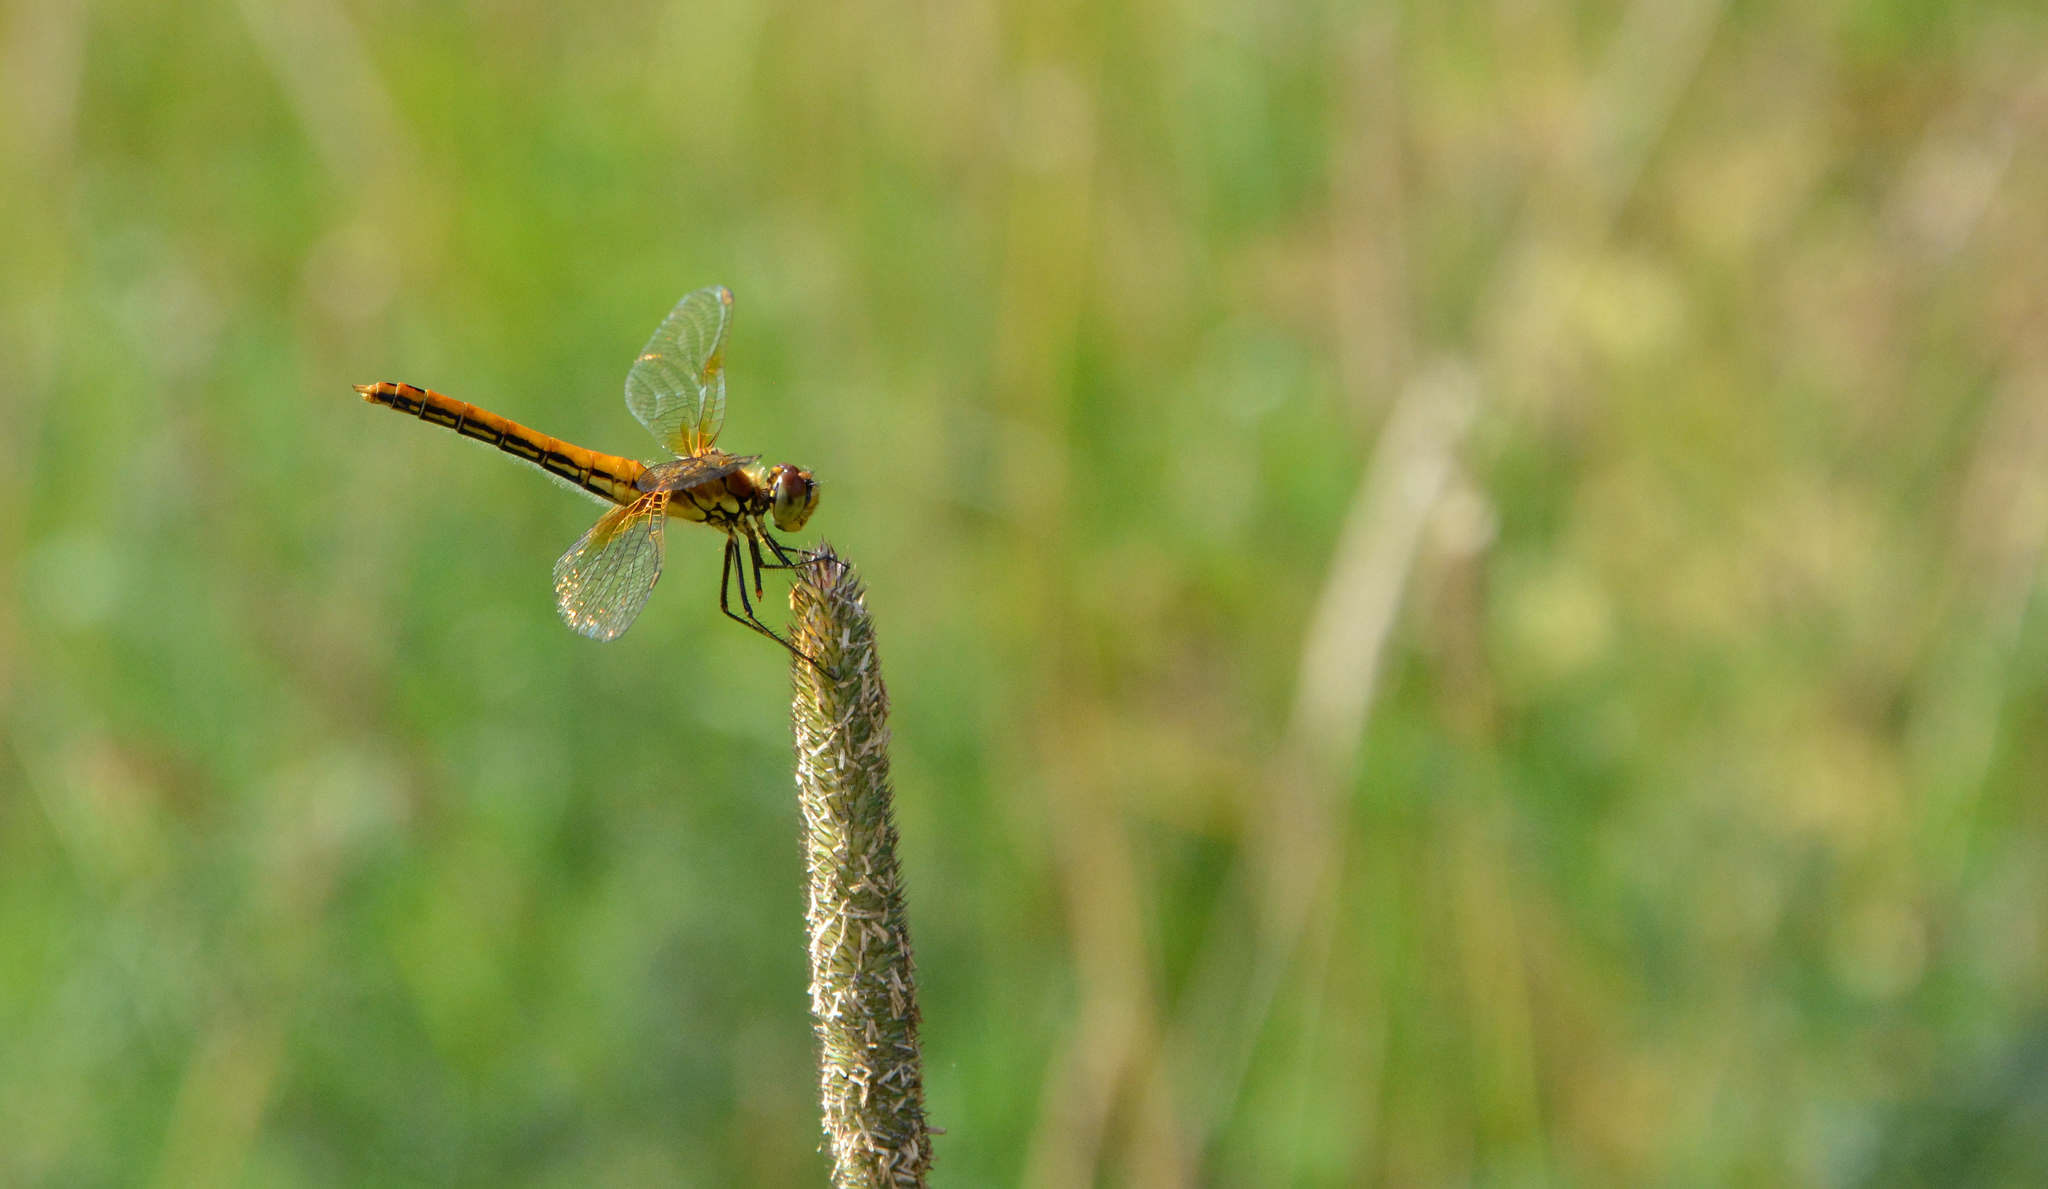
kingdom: Animalia
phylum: Arthropoda
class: Insecta
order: Odonata
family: Libellulidae
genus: Sympetrum
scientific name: Sympetrum flaveolum
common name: Yellow-winged darter
